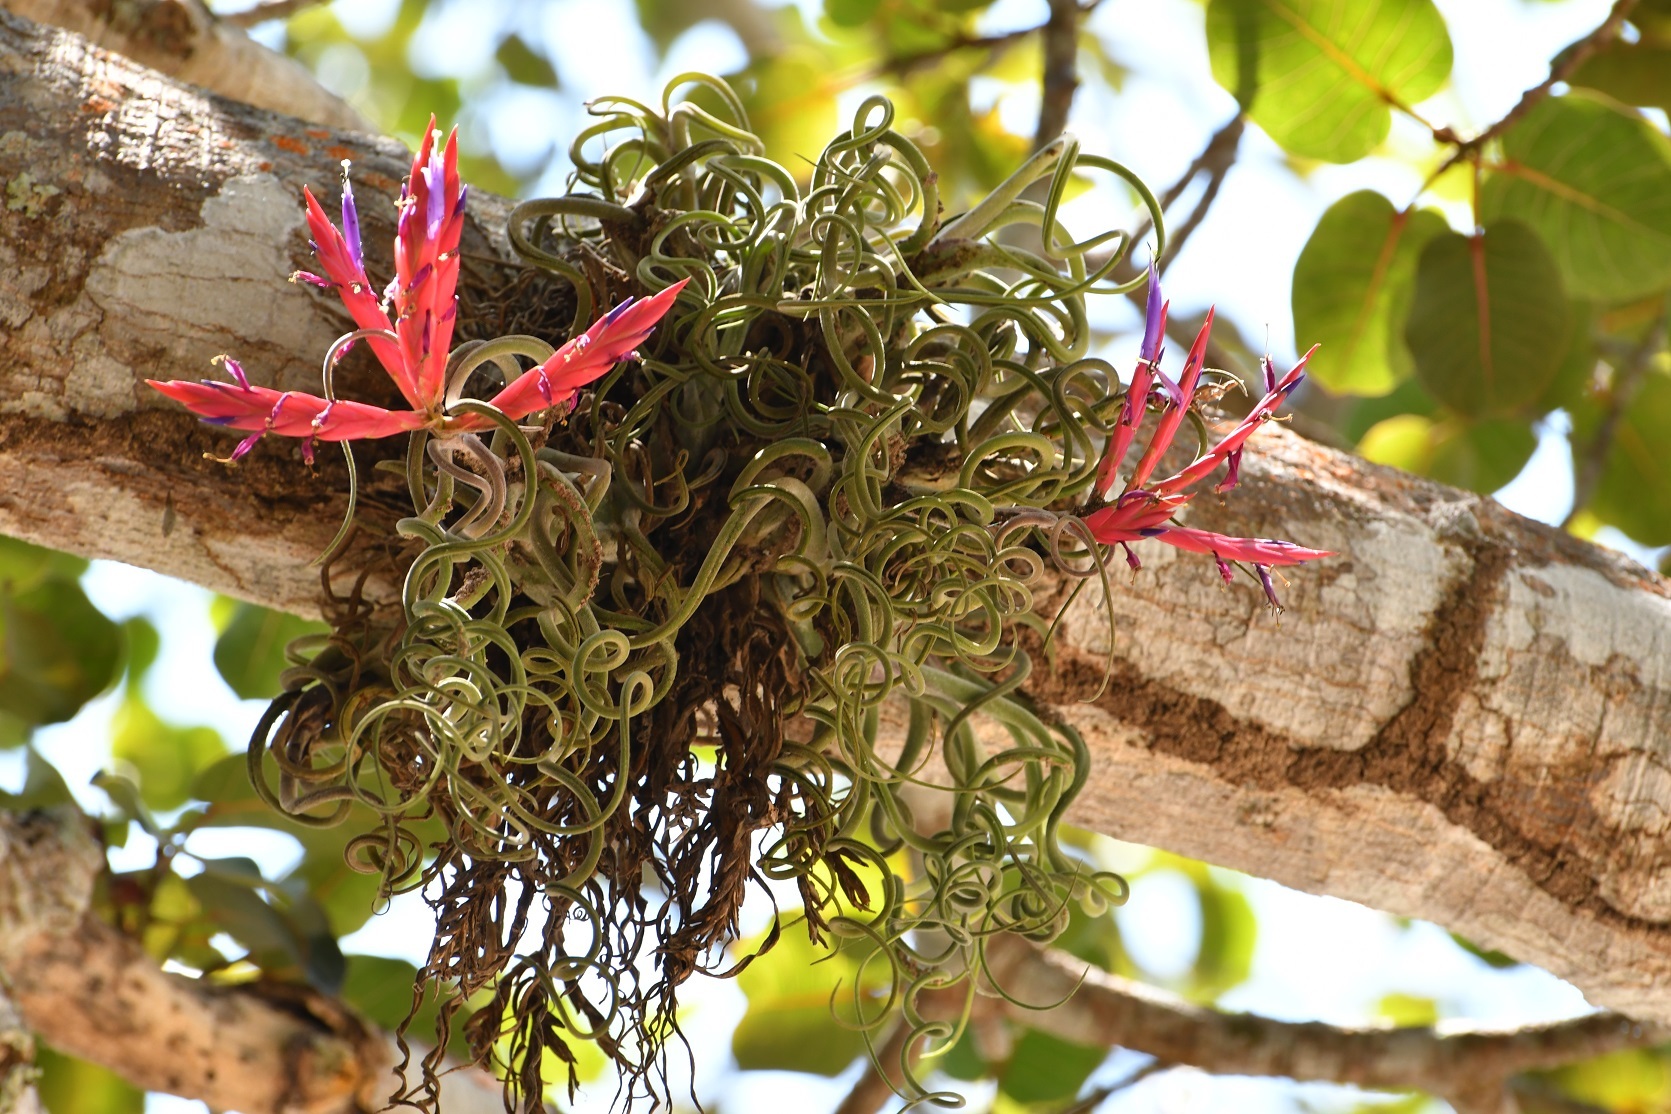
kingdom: Plantae
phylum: Tracheophyta
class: Liliopsida
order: Poales
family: Bromeliaceae
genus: Tillandsia
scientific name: Tillandsia caput-medusae
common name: Octopus plant
